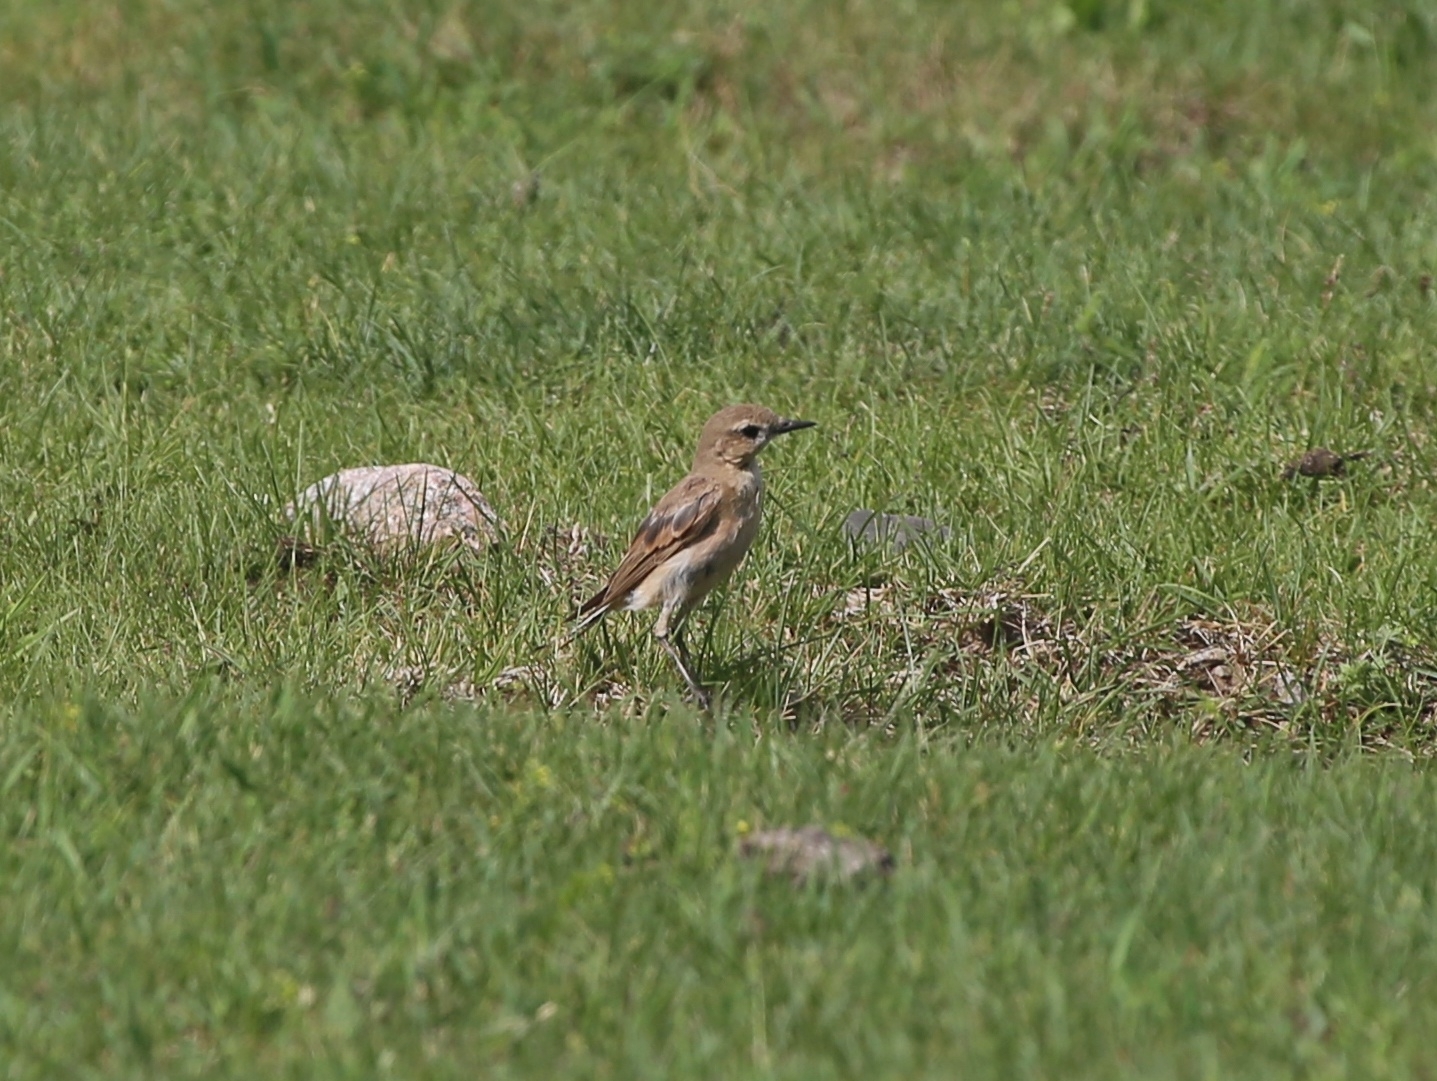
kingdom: Animalia
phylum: Chordata
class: Aves
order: Passeriformes
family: Muscicapidae
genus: Oenanthe
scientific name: Oenanthe isabellina
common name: Isabelline wheatear
